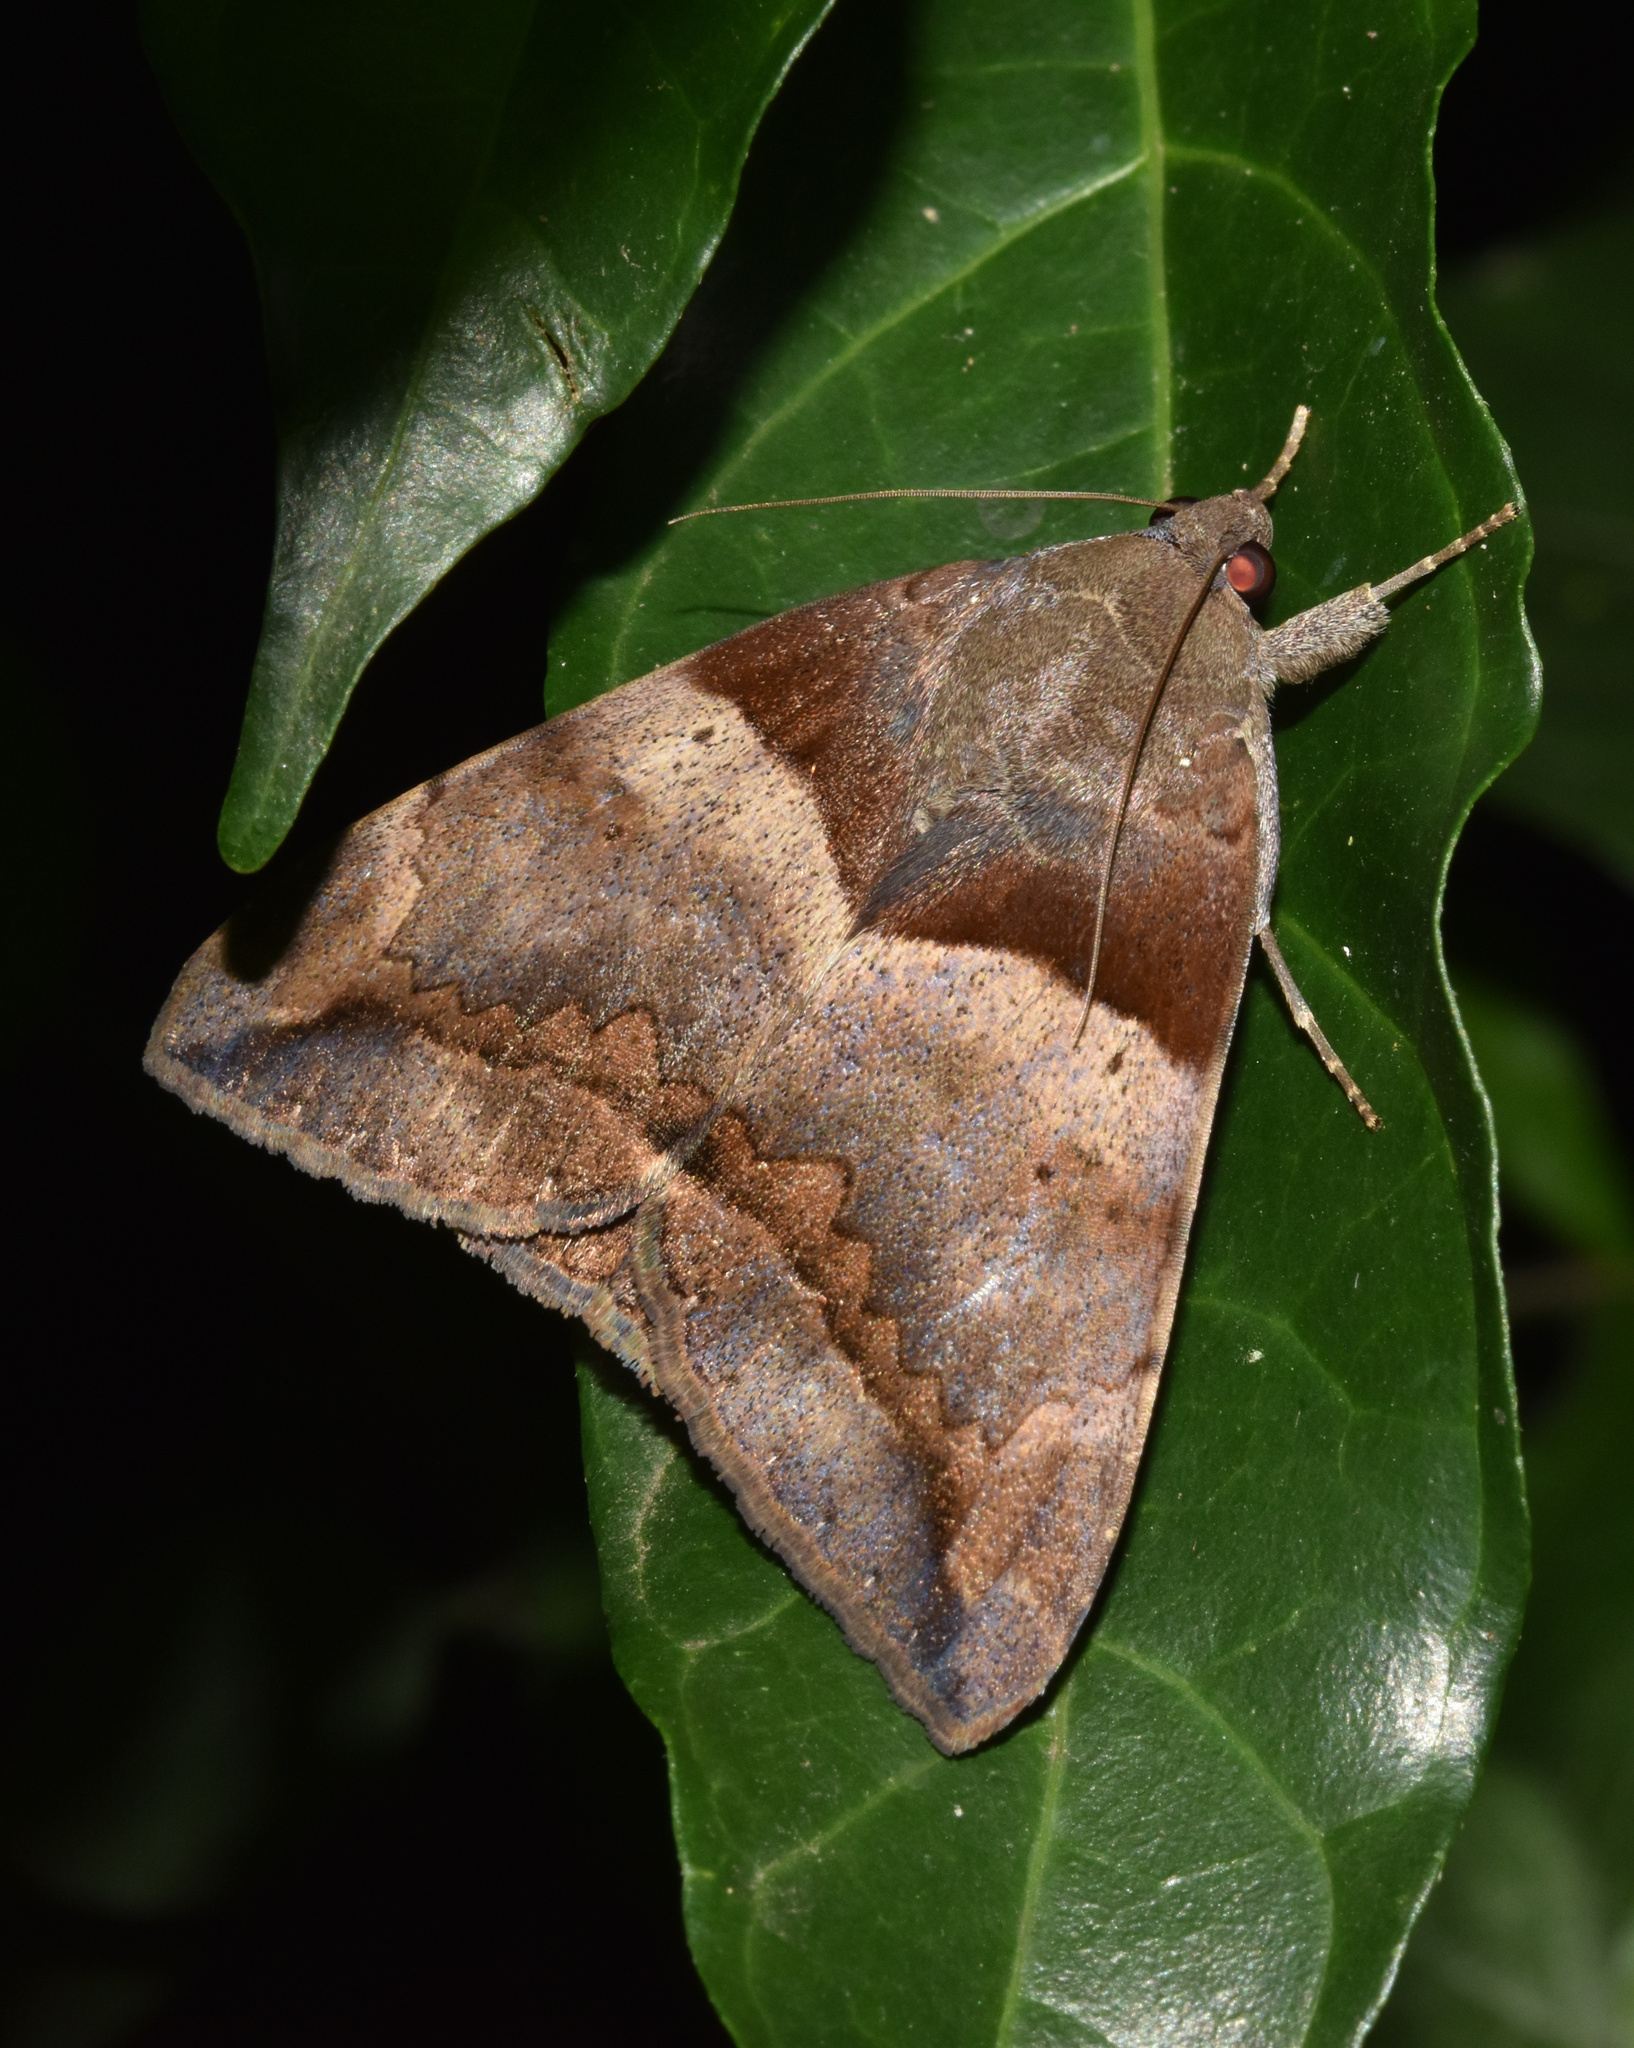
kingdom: Animalia
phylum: Arthropoda
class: Insecta
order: Lepidoptera
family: Erebidae
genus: Achaea
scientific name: Achaea lienardi
